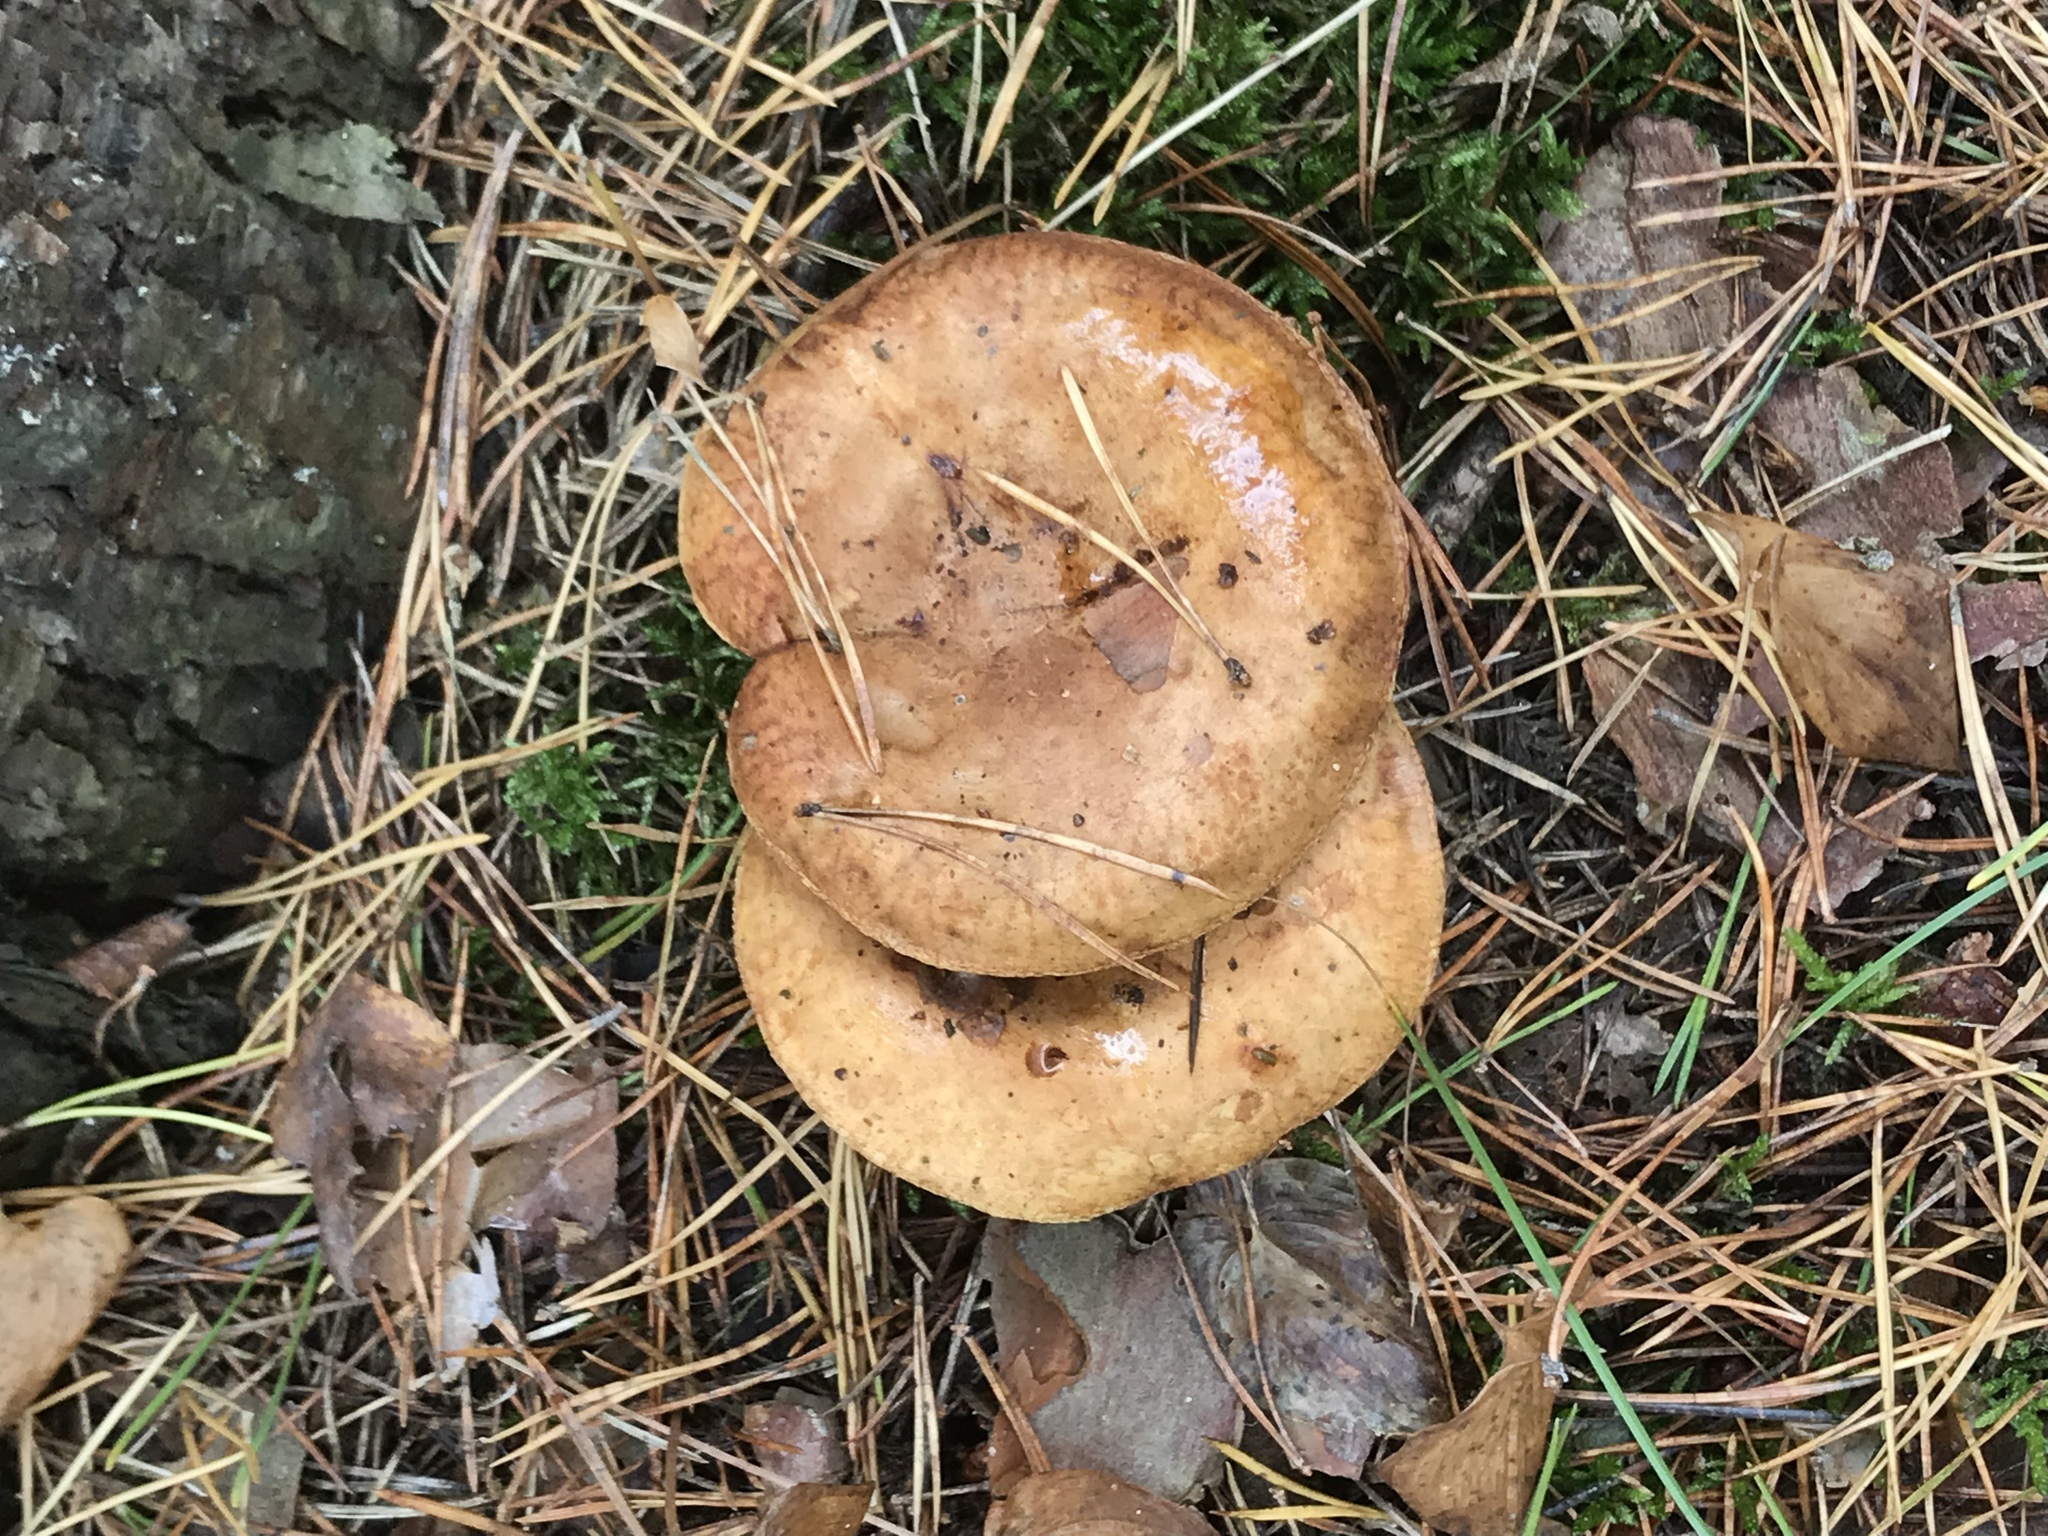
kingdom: Fungi
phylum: Basidiomycota
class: Agaricomycetes
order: Boletales
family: Paxillaceae
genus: Paxillus
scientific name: Paxillus involutus
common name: Brown roll rim
